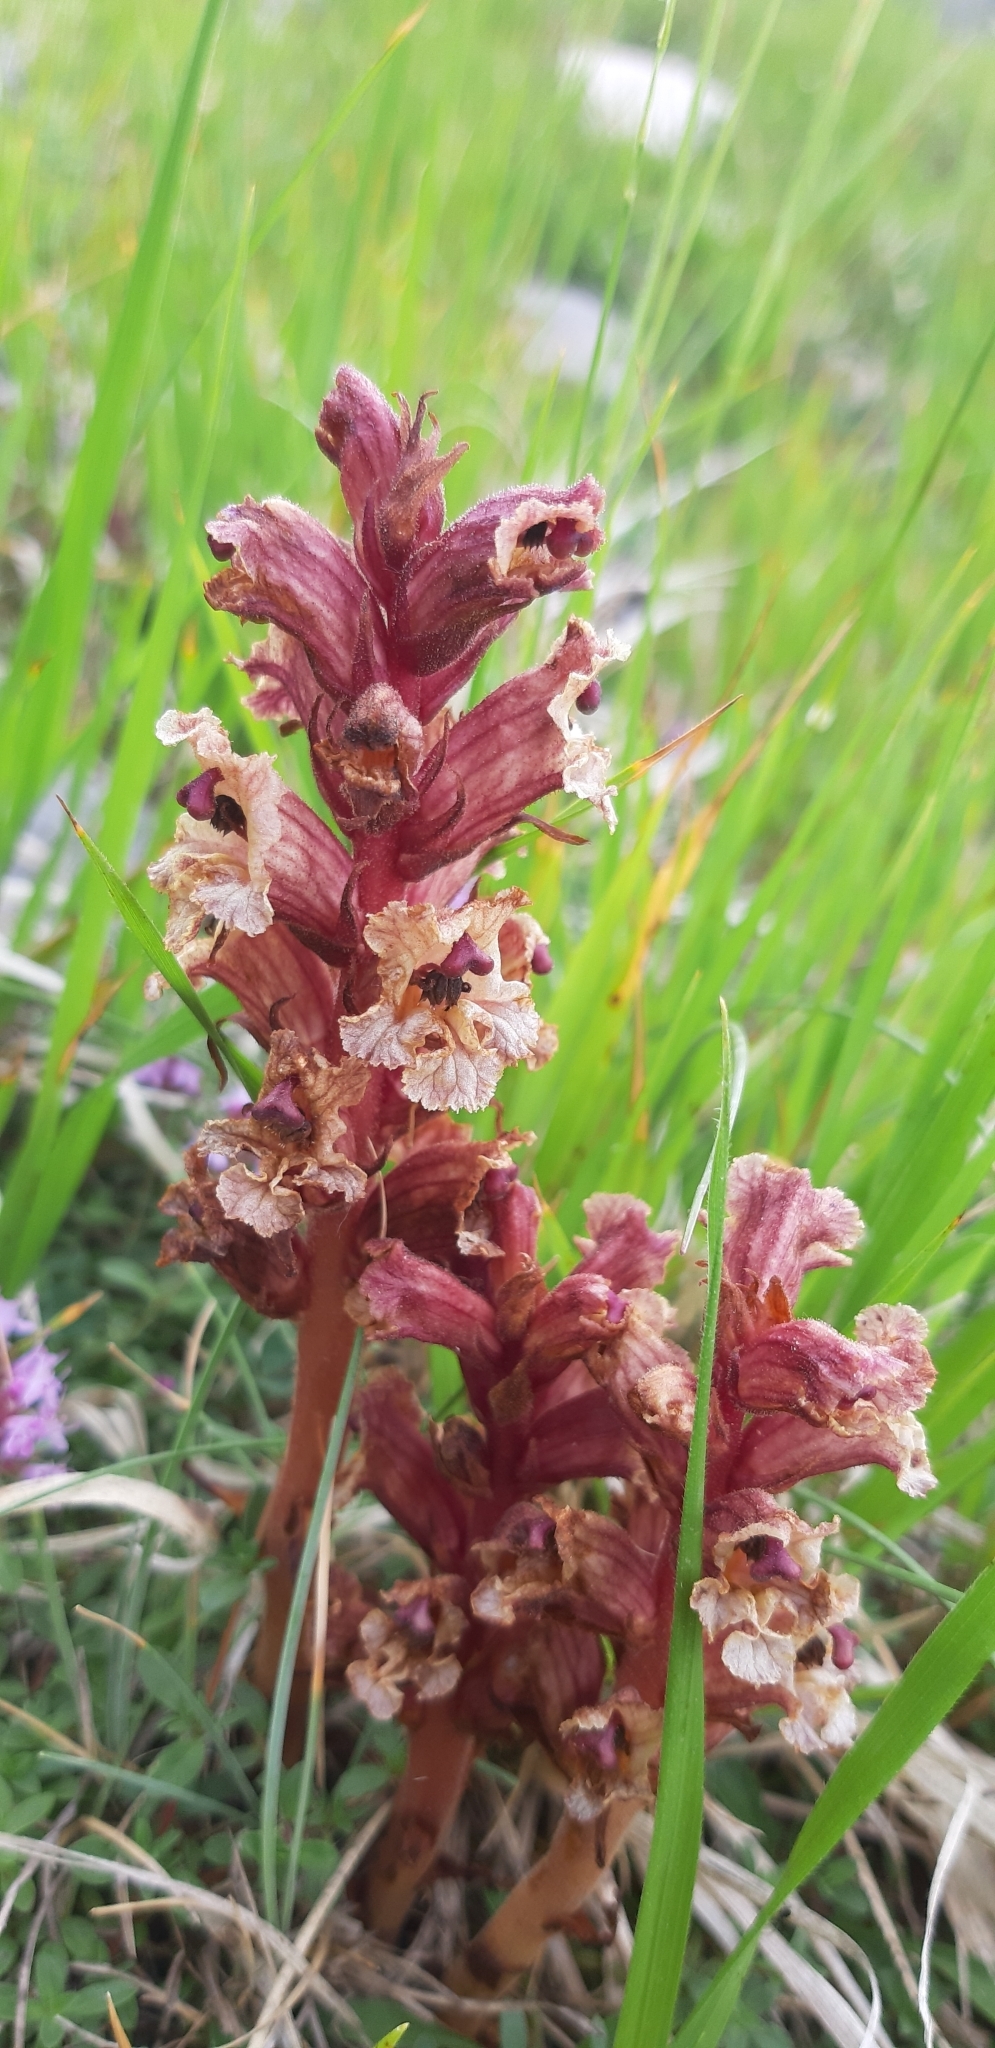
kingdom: Plantae
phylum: Tracheophyta
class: Magnoliopsida
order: Lamiales
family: Orobanchaceae
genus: Orobanche
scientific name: Orobanche alba
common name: Thyme broomrape
